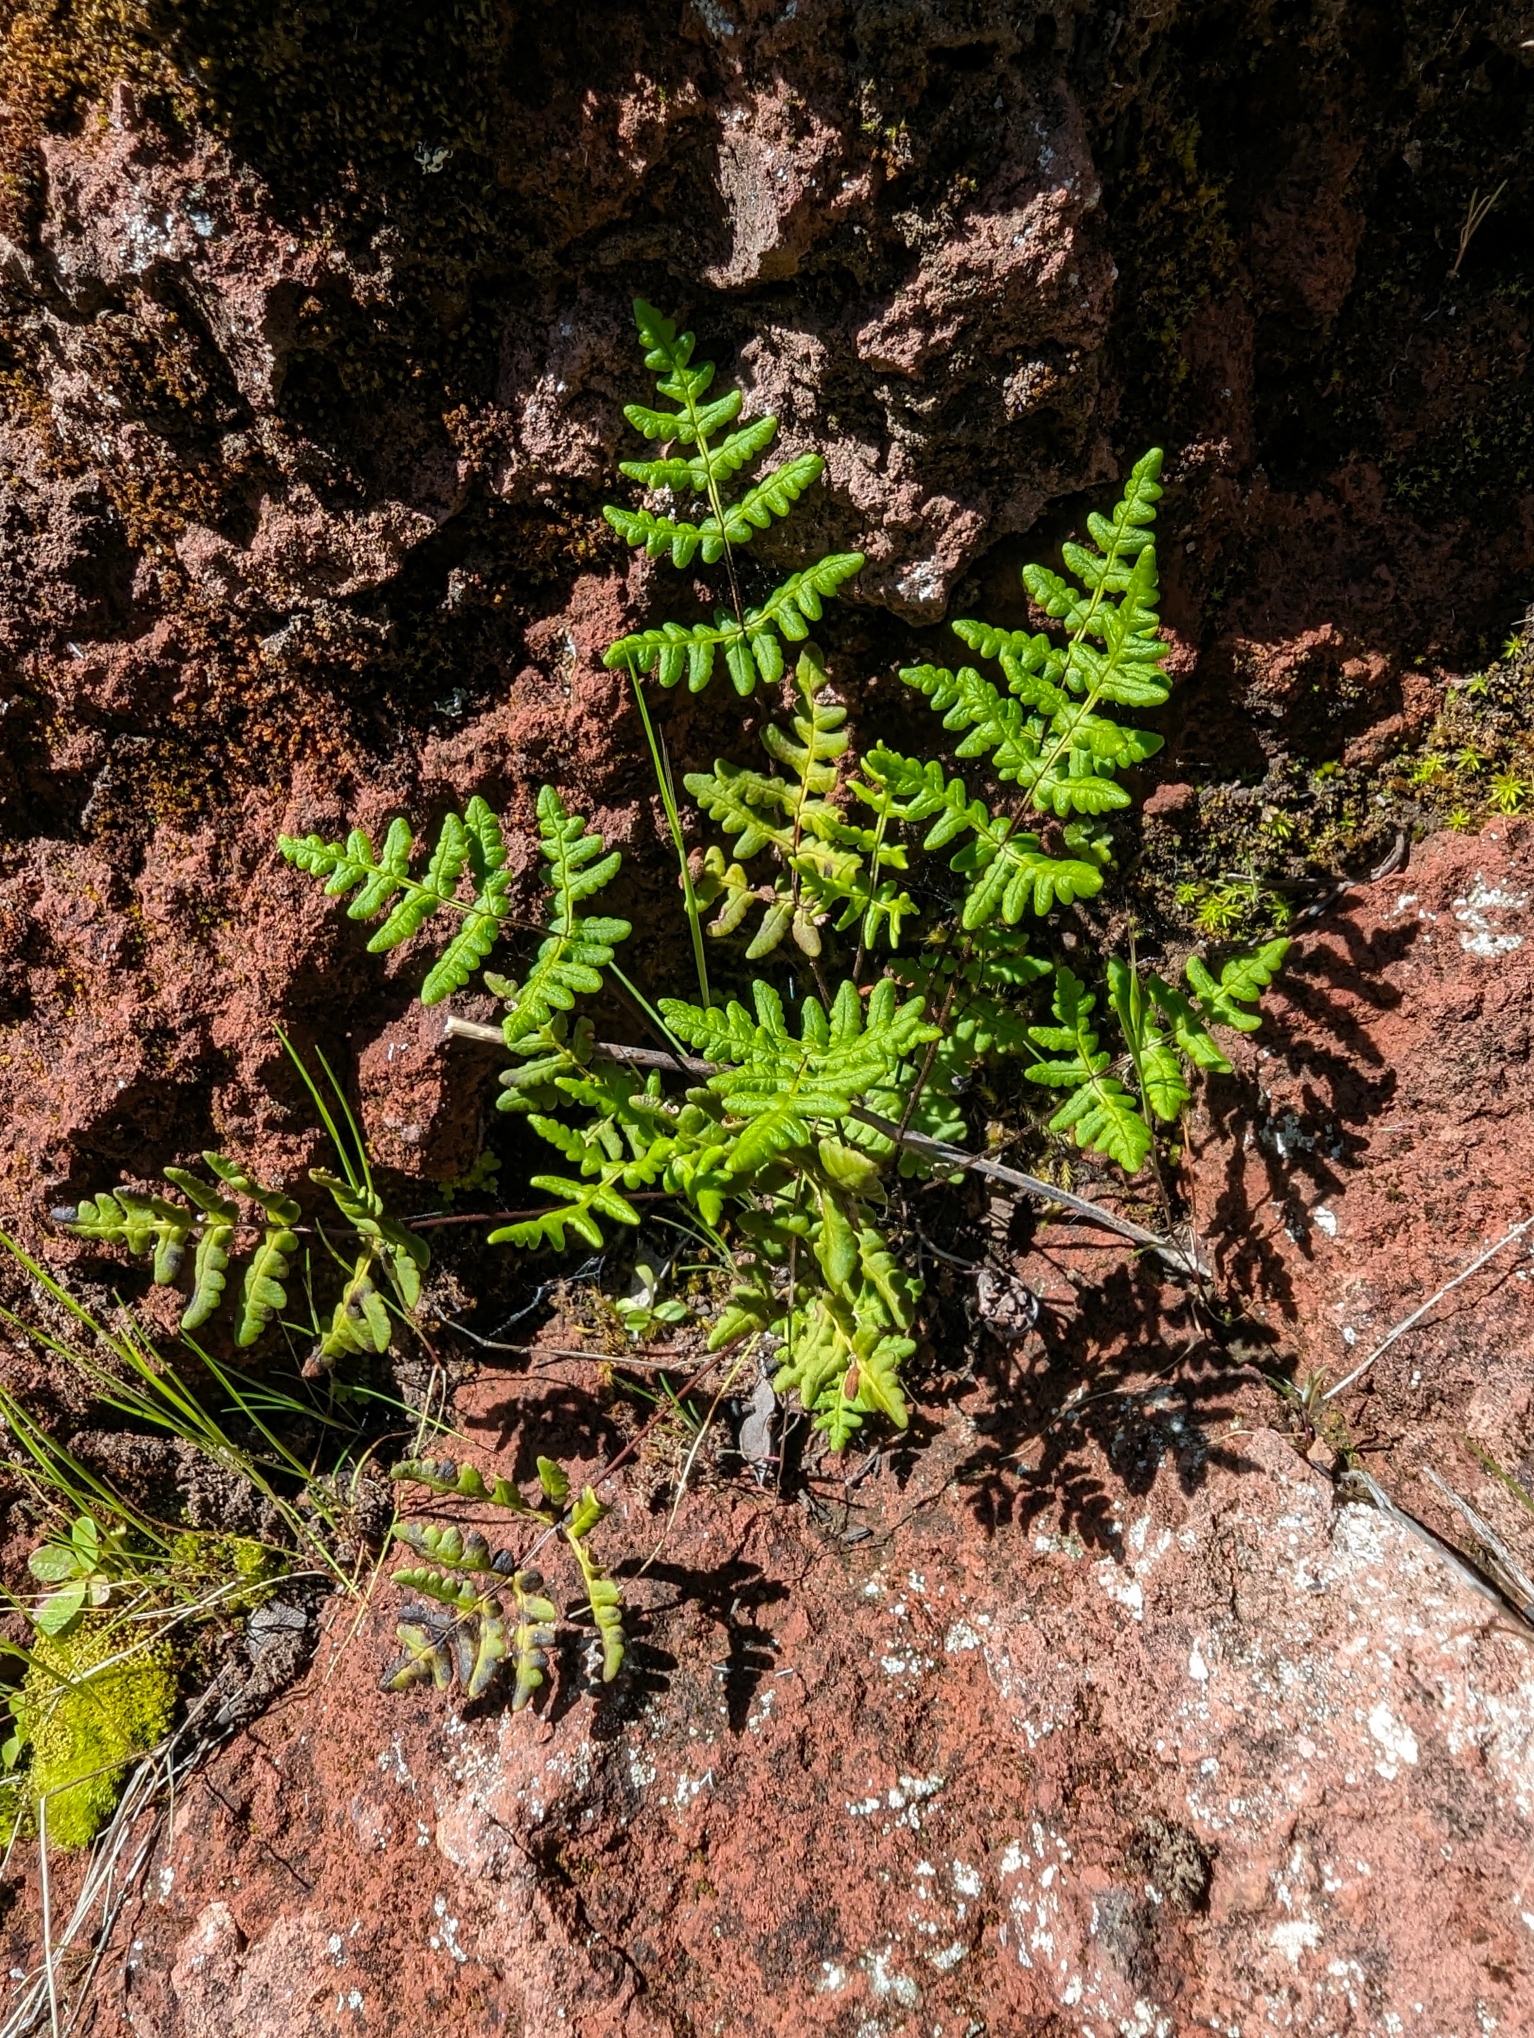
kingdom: Plantae
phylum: Tracheophyta
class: Polypodiopsida
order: Polypodiales
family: Pteridaceae
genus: Pentagramma
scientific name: Pentagramma triangularis
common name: Gold fern
